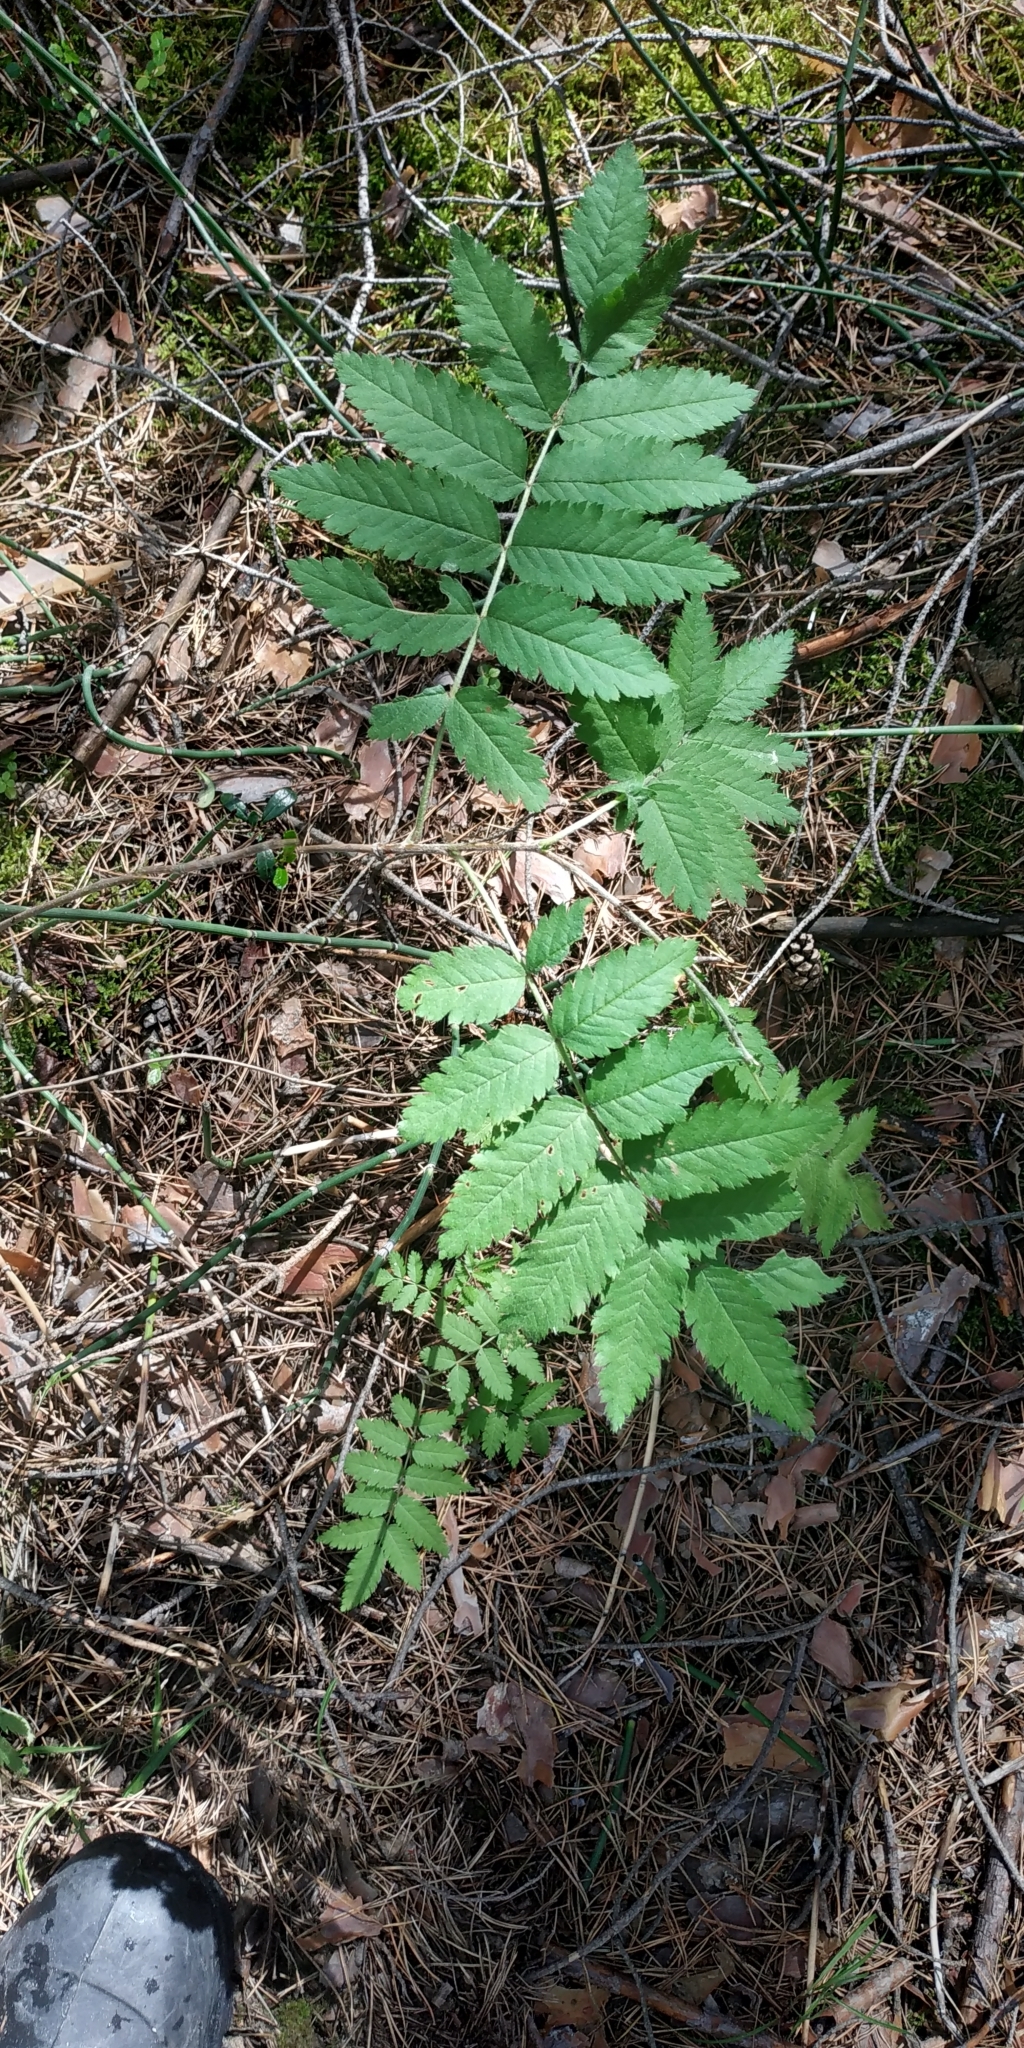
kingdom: Plantae
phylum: Tracheophyta
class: Magnoliopsida
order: Rosales
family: Rosaceae
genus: Sorbus
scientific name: Sorbus aucuparia
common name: Rowan
